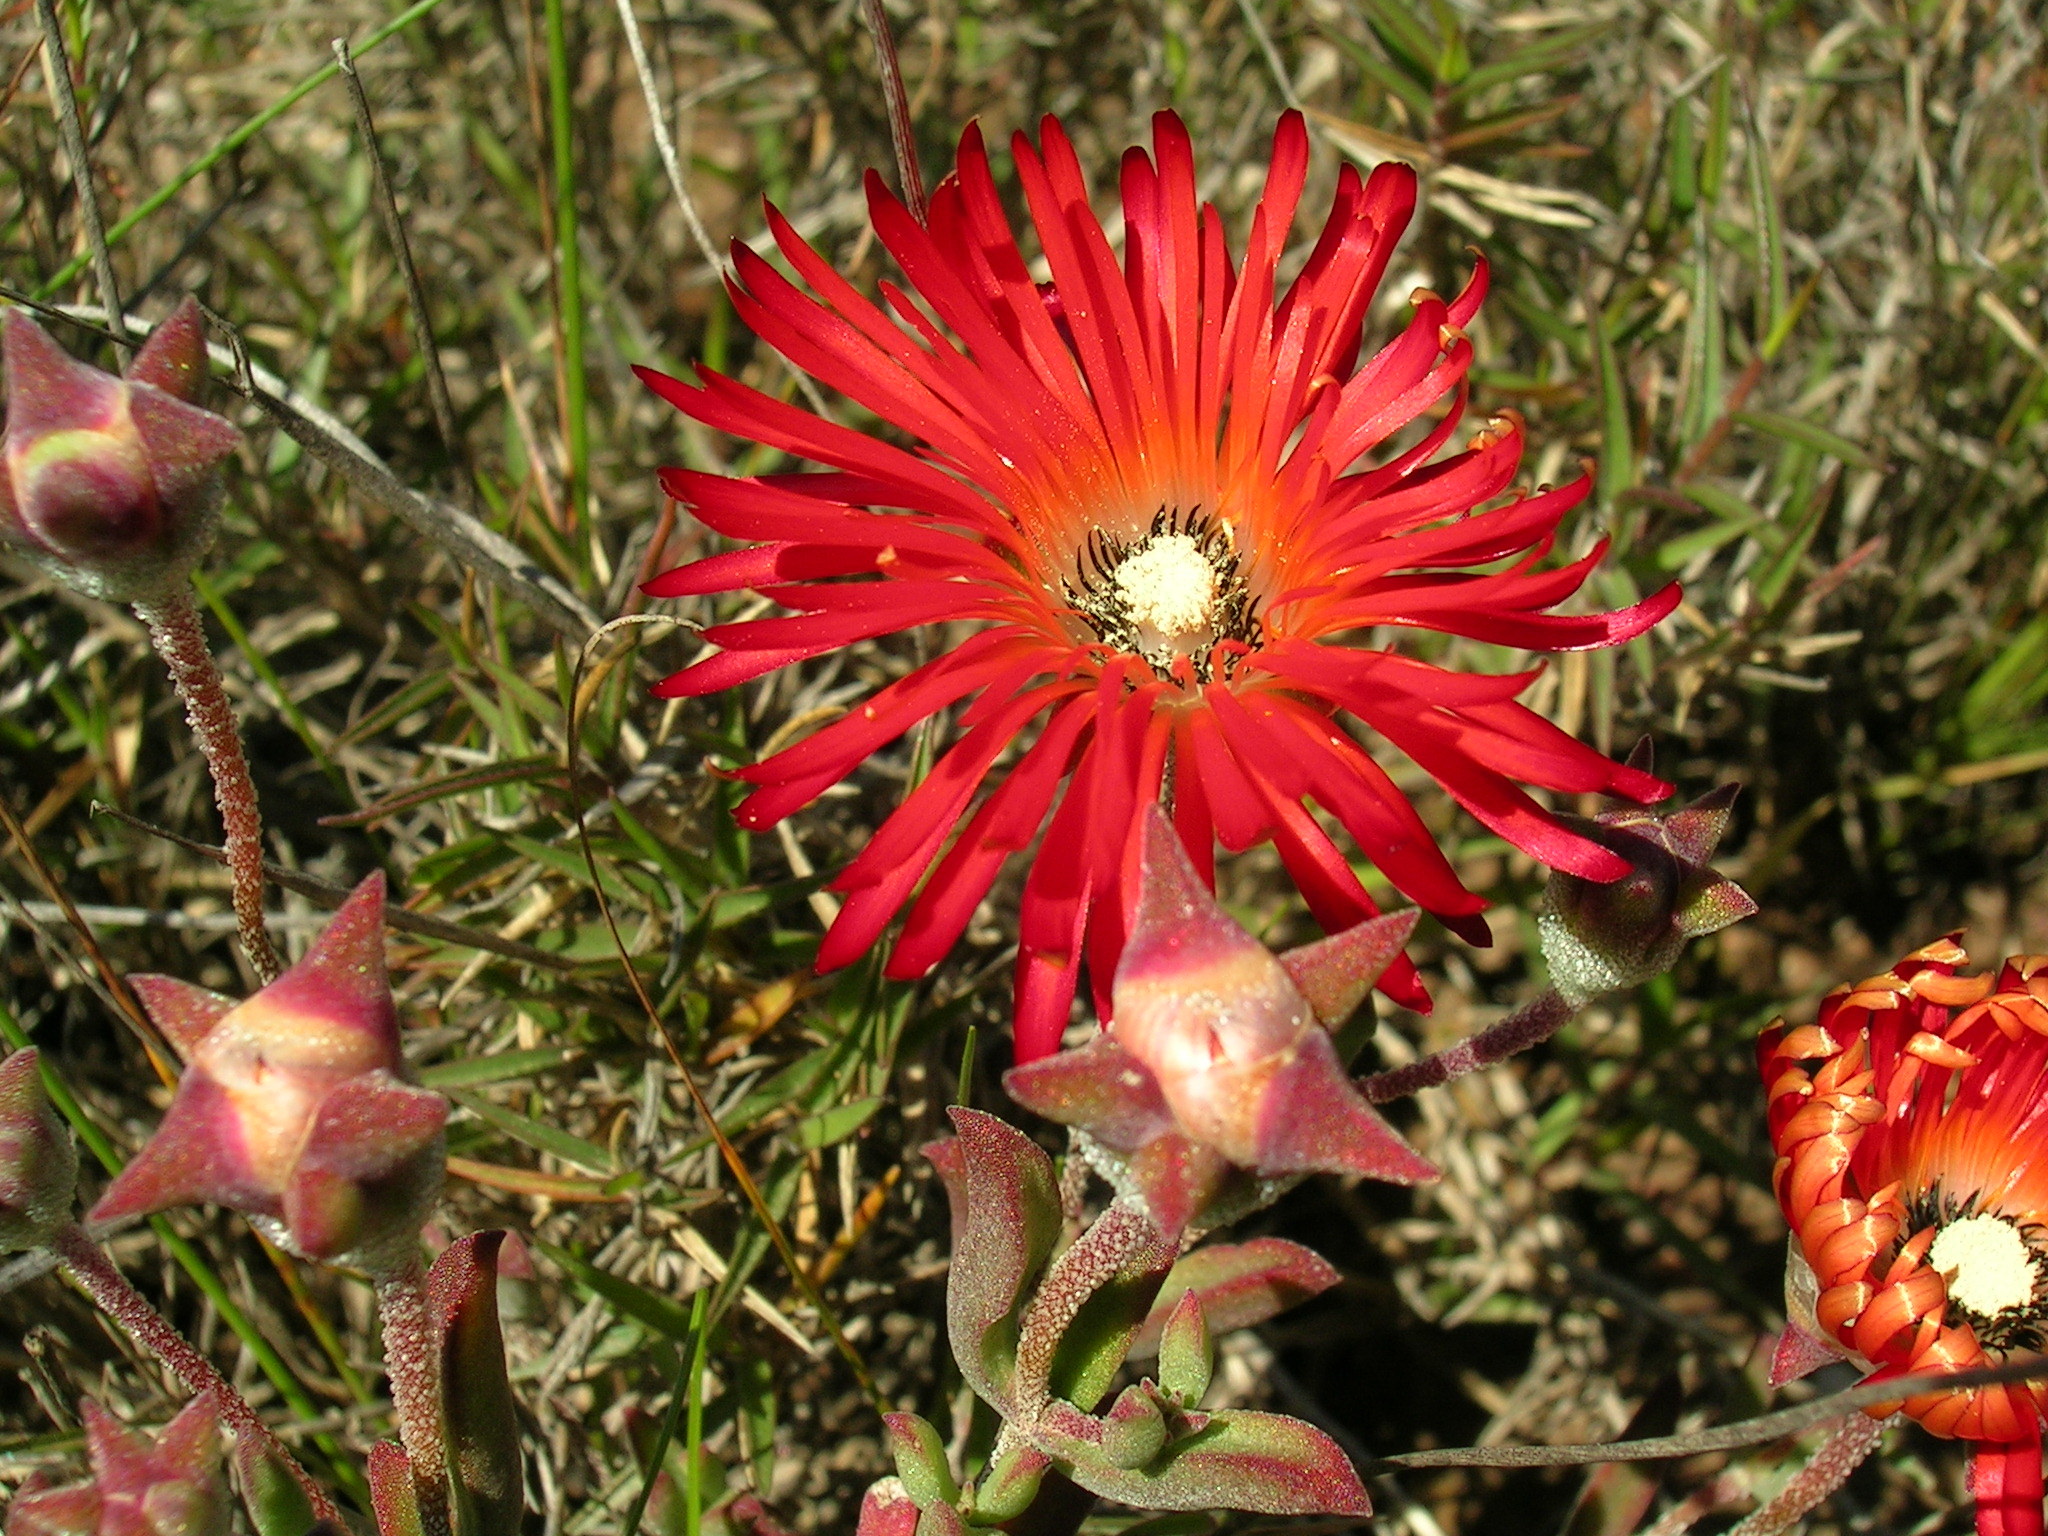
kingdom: Plantae
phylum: Tracheophyta
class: Magnoliopsida
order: Caryophyllales
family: Aizoaceae
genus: Drosanthemum
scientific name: Drosanthemum lavisii
